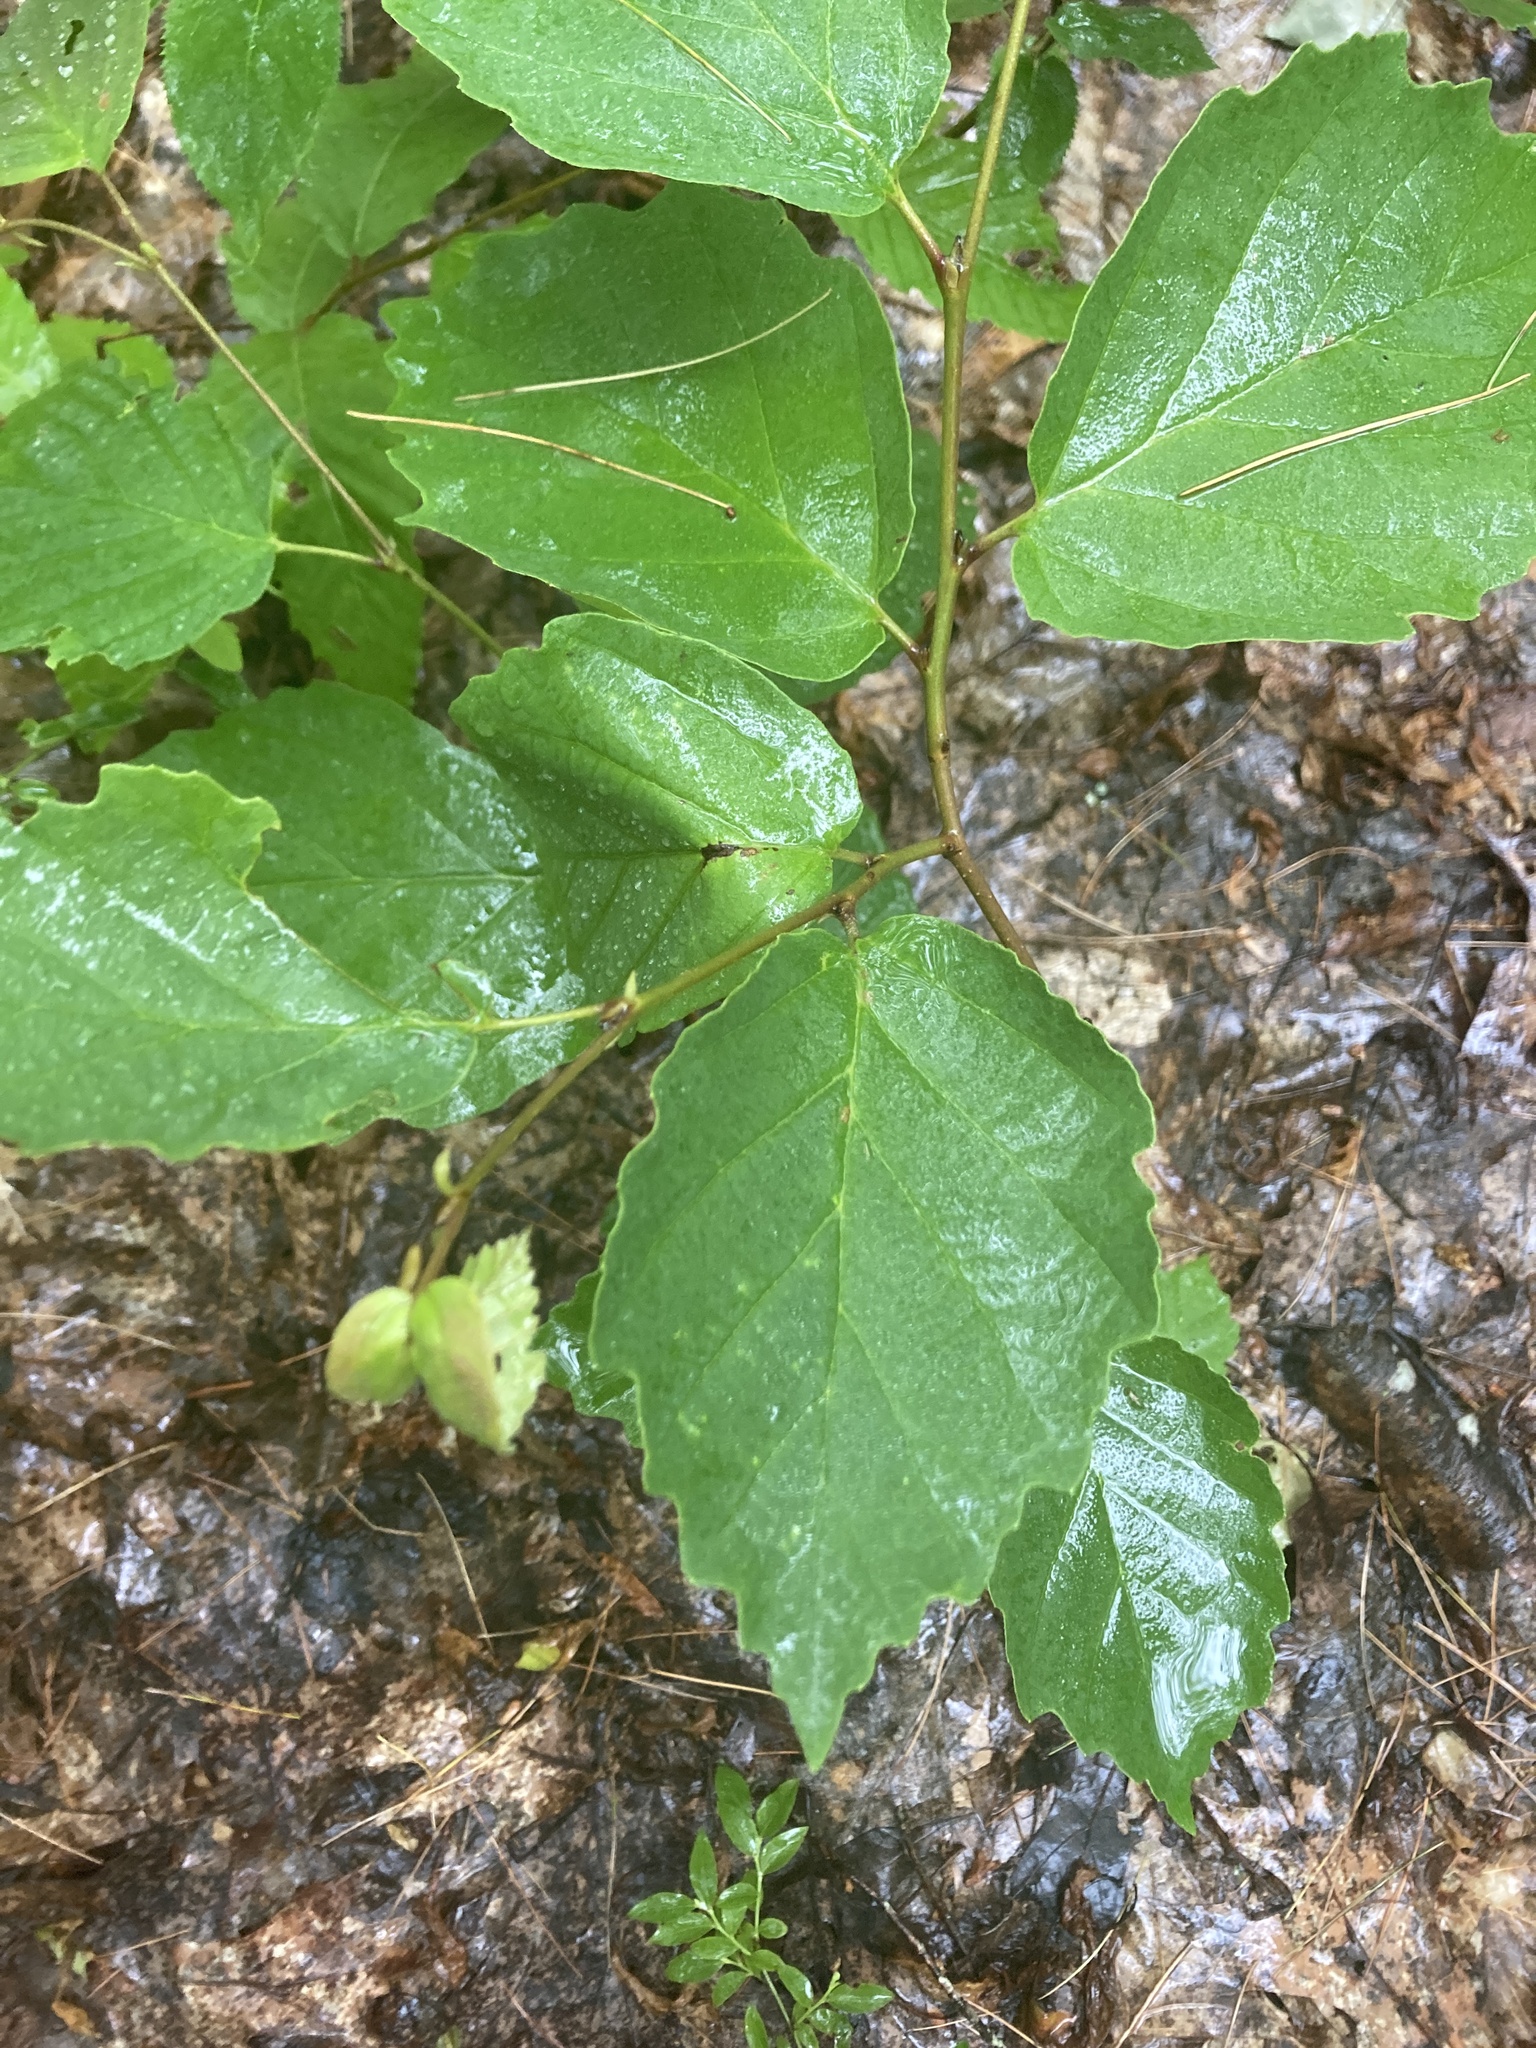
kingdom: Plantae
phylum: Tracheophyta
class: Magnoliopsida
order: Saxifragales
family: Hamamelidaceae
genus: Hamamelis
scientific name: Hamamelis virginiana
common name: Witch-hazel
